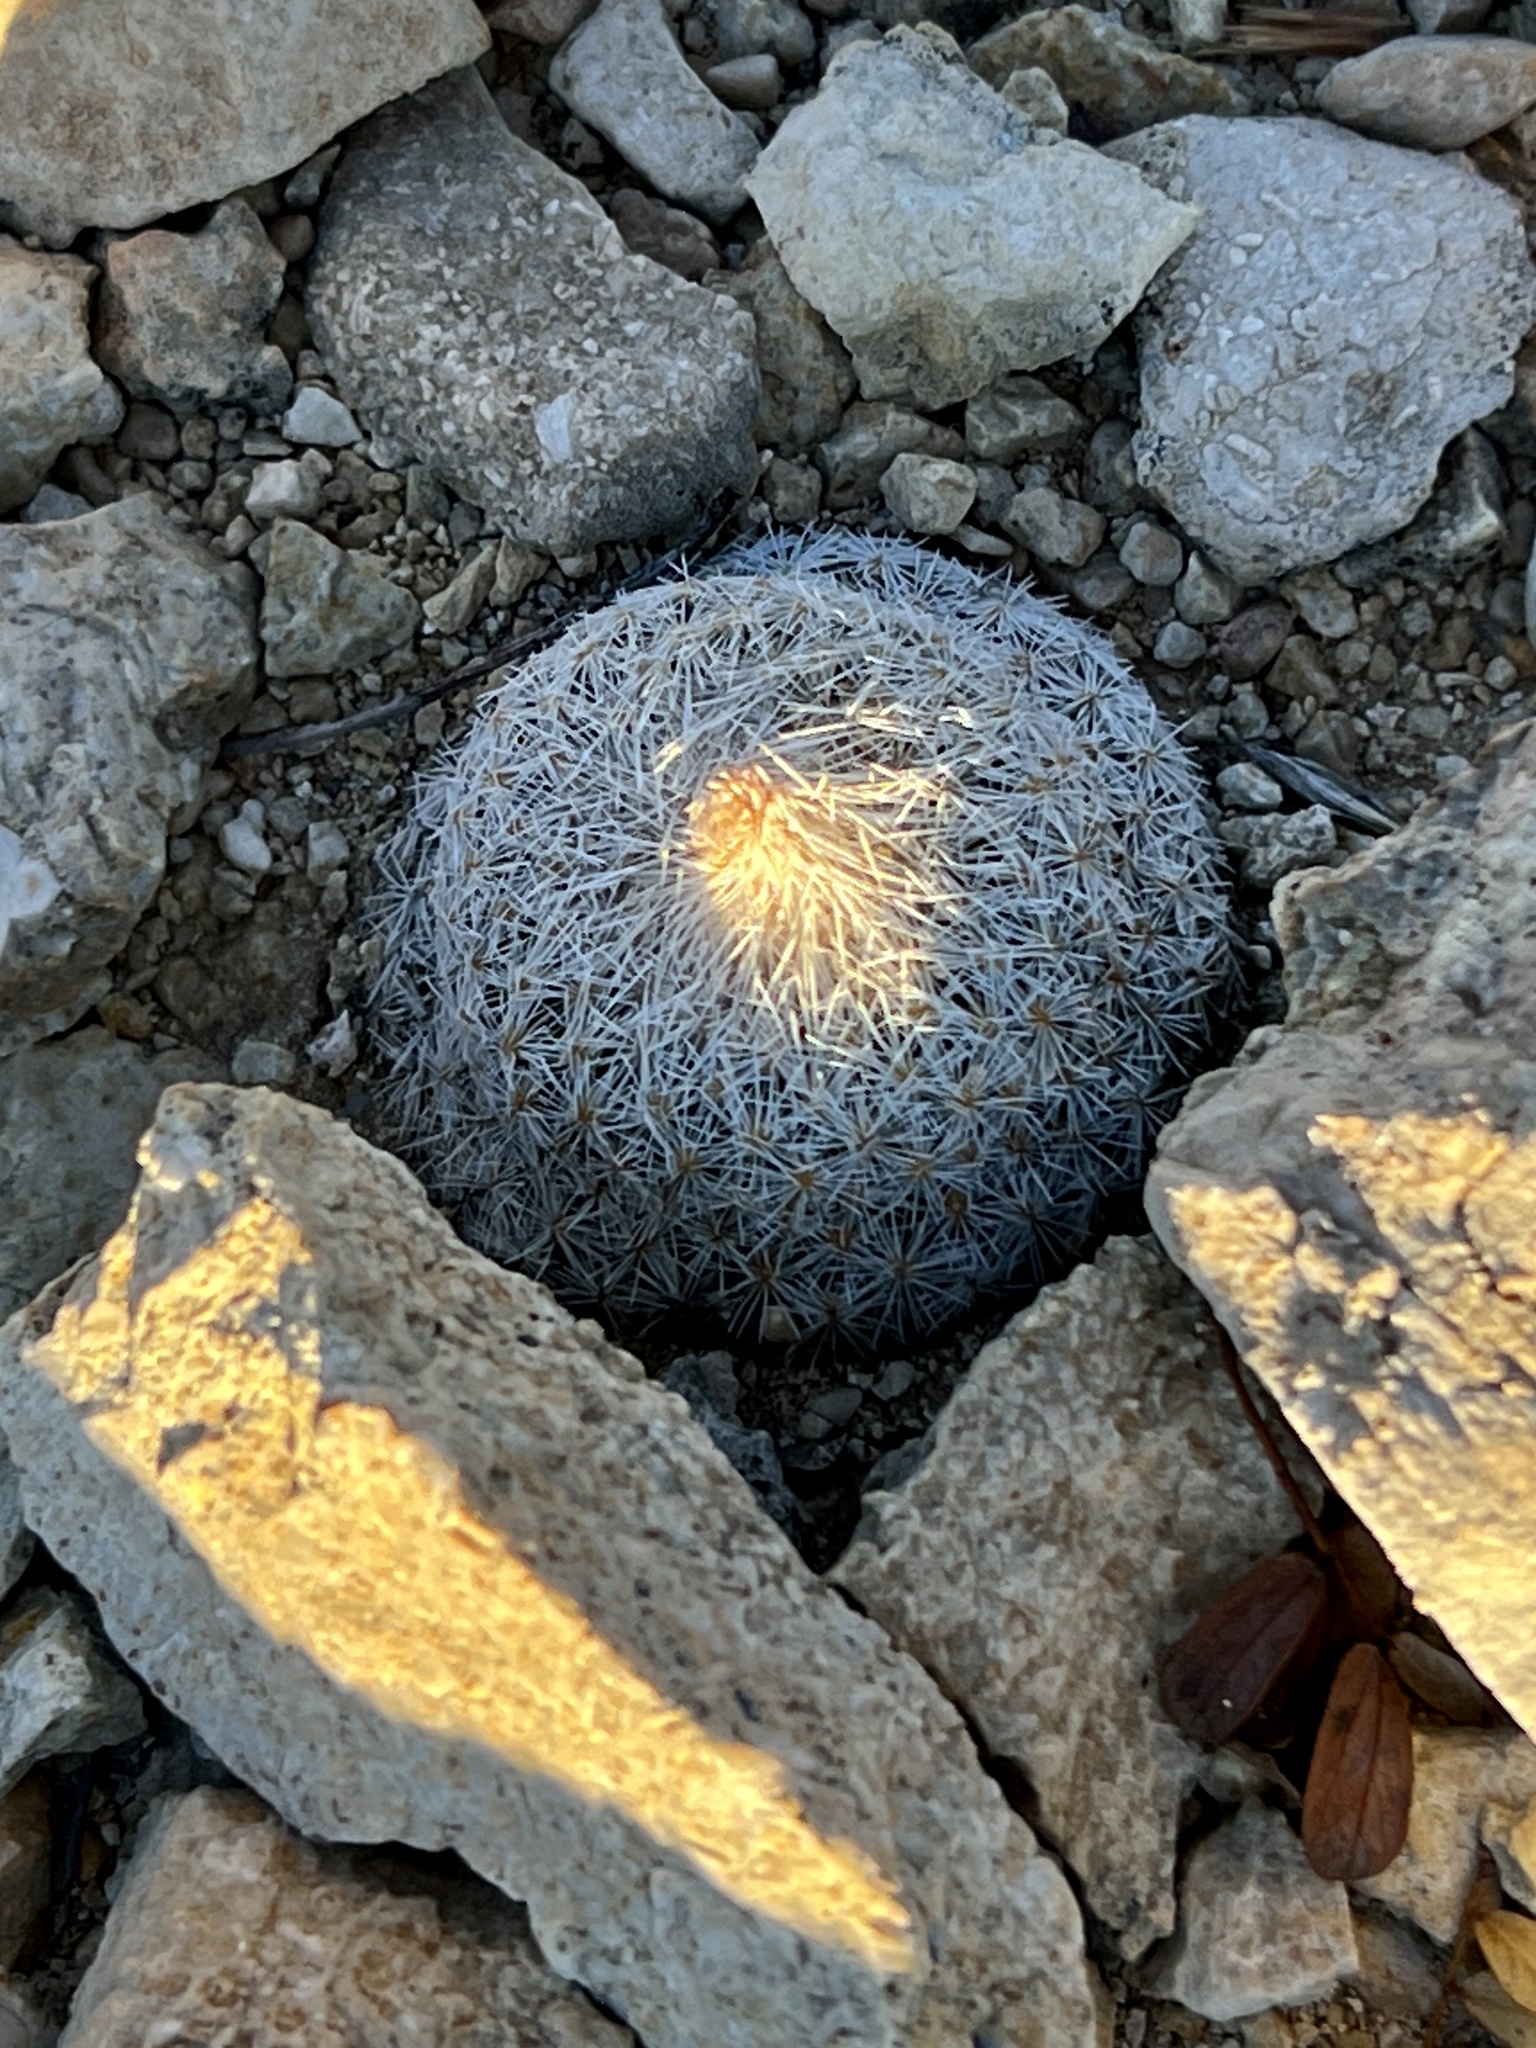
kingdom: Plantae
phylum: Tracheophyta
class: Magnoliopsida
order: Caryophyllales
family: Cactaceae
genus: Epithelantha
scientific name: Epithelantha micromeris
